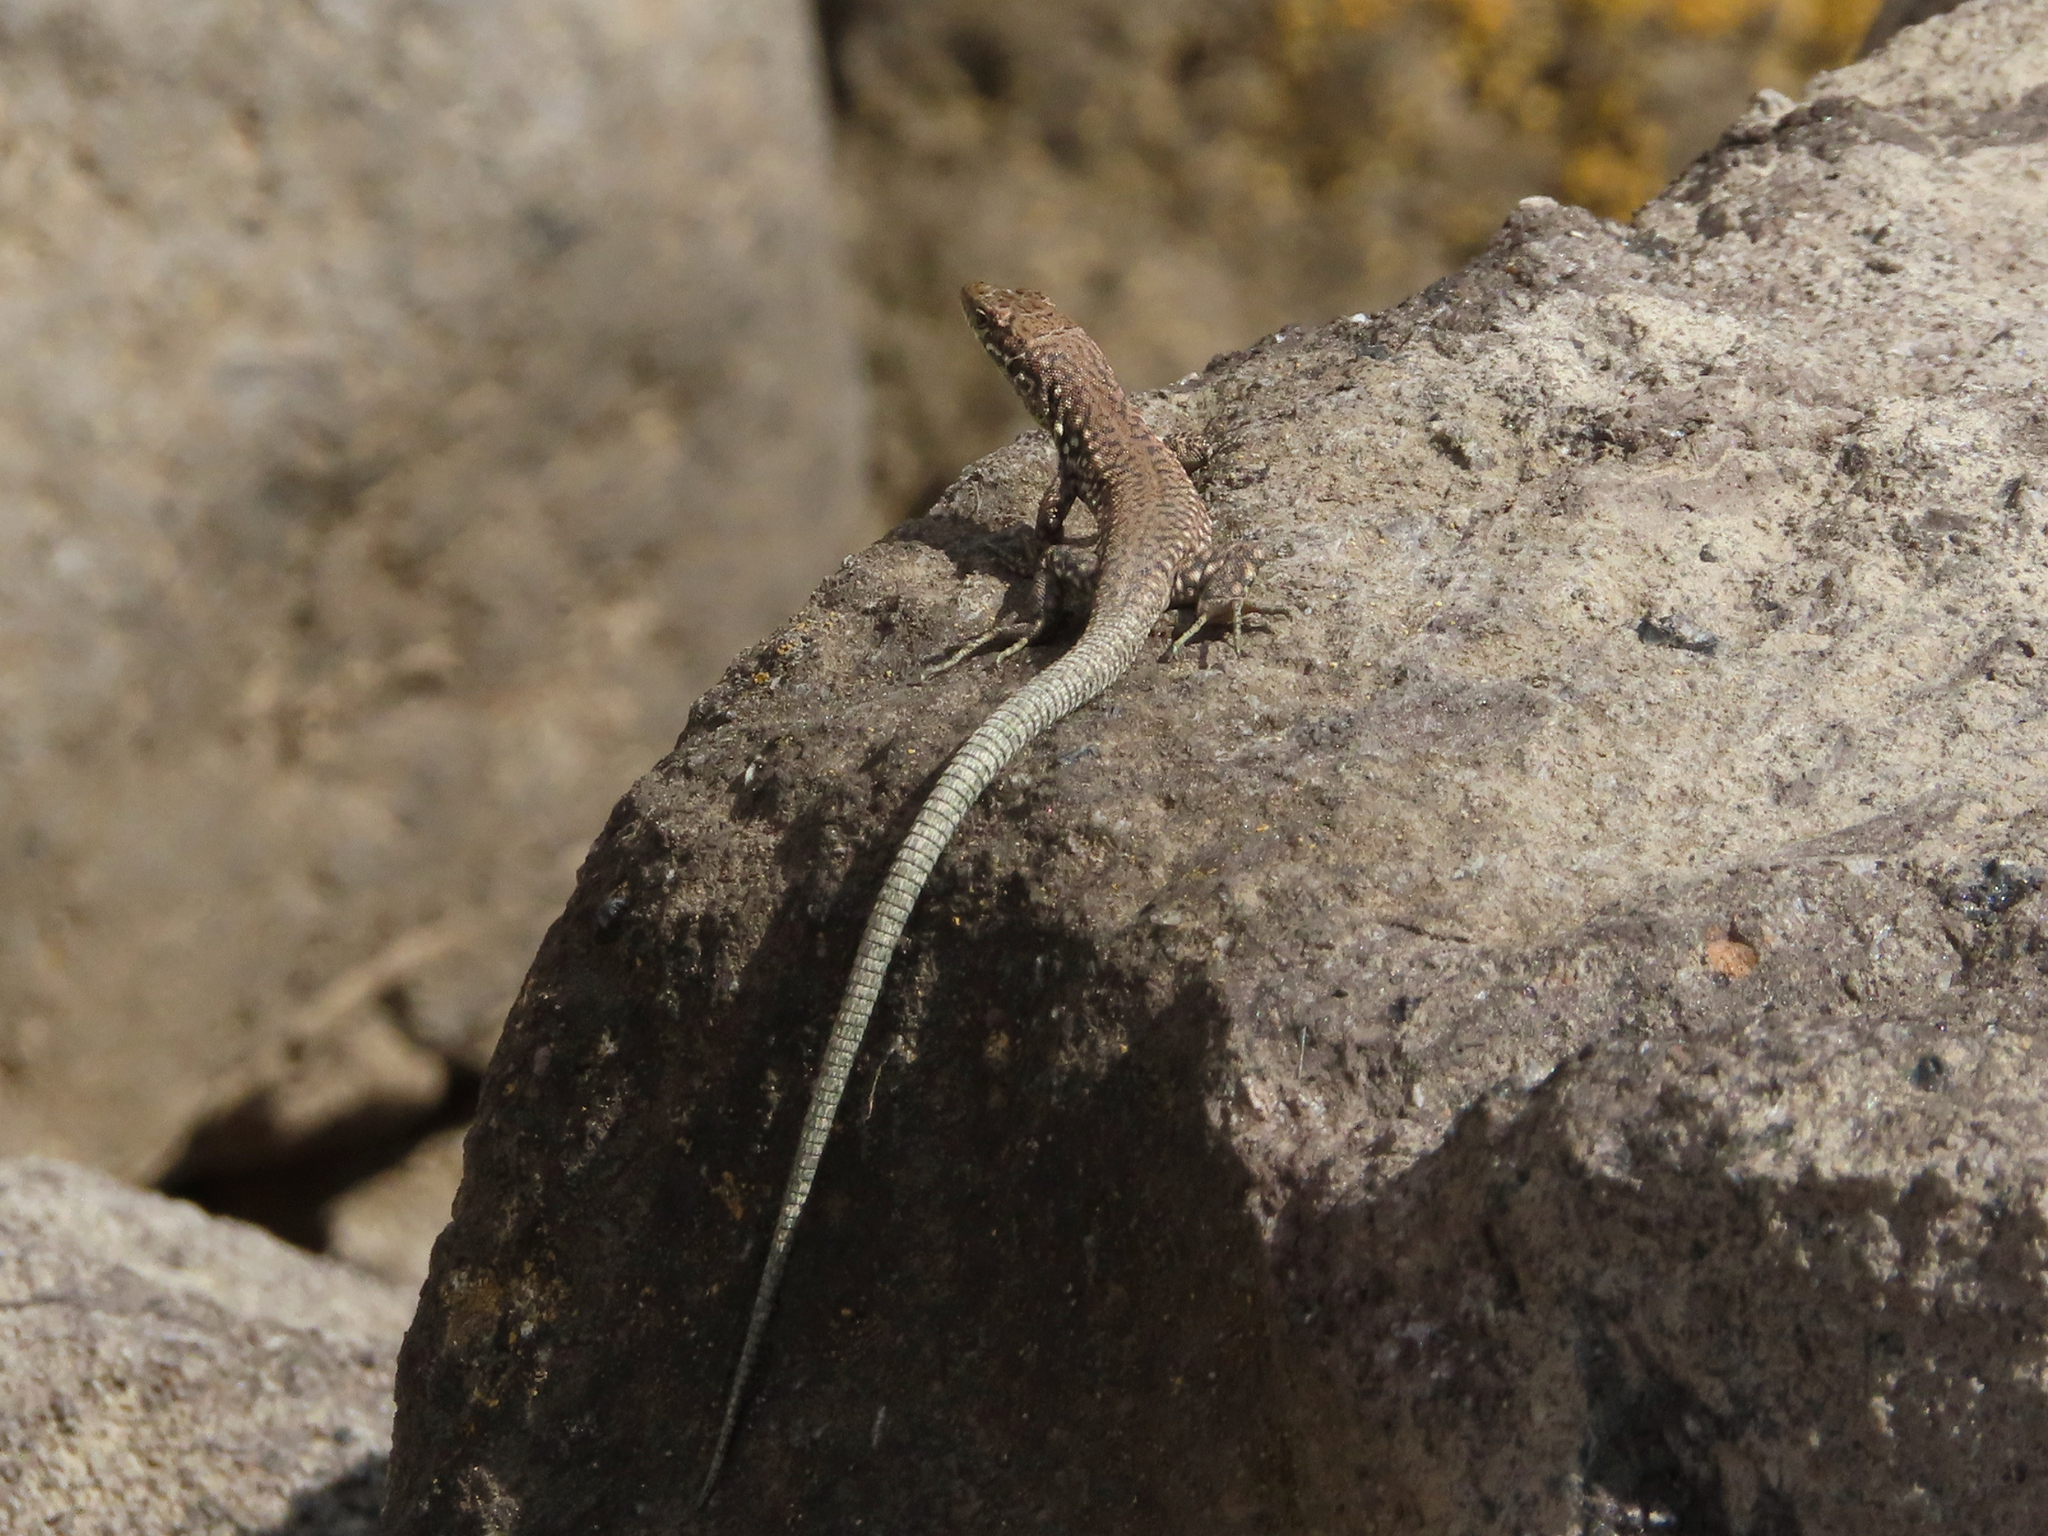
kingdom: Animalia
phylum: Chordata
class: Squamata
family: Lacertidae
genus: Darevskia
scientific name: Darevskia
